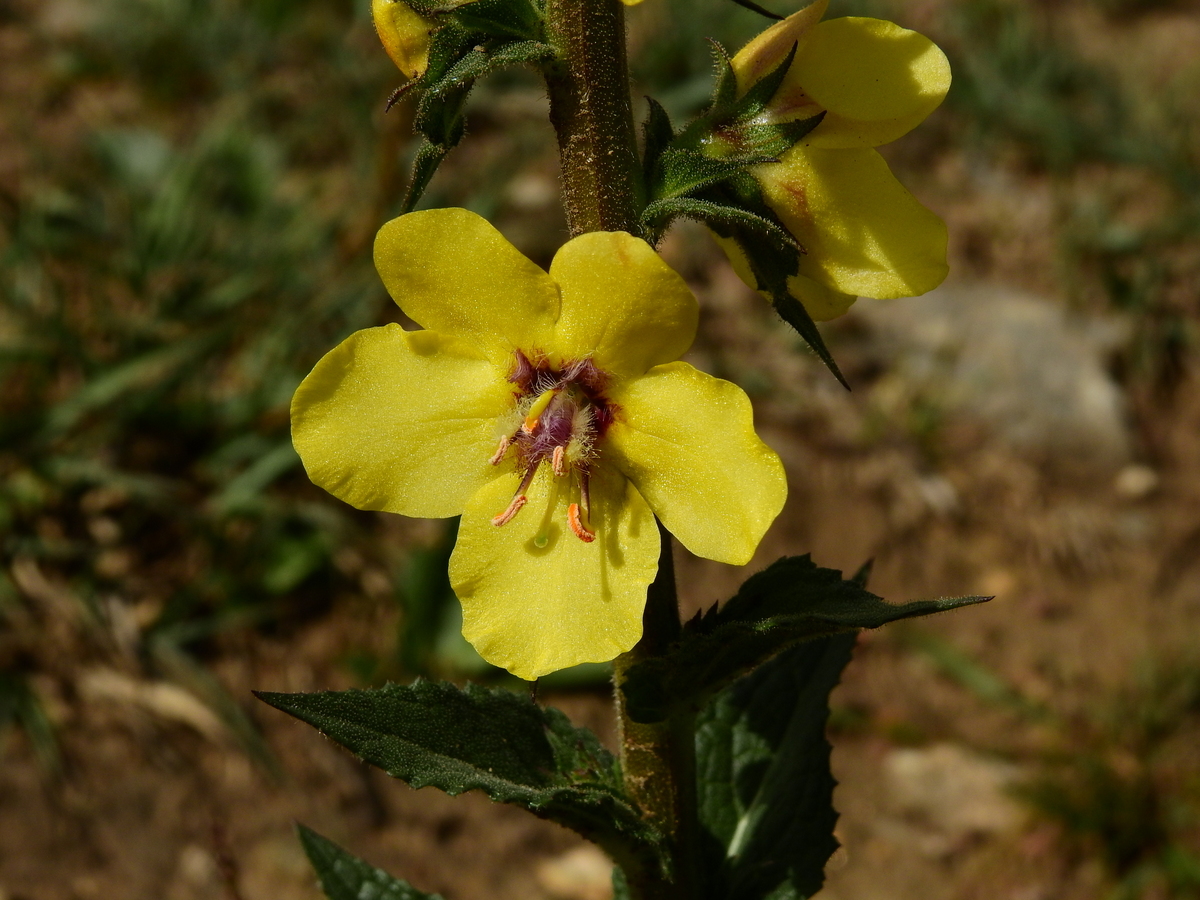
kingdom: Plantae
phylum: Tracheophyta
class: Magnoliopsida
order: Lamiales
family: Scrophulariaceae
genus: Verbascum
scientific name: Verbascum virgatum
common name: Twiggy mullein
